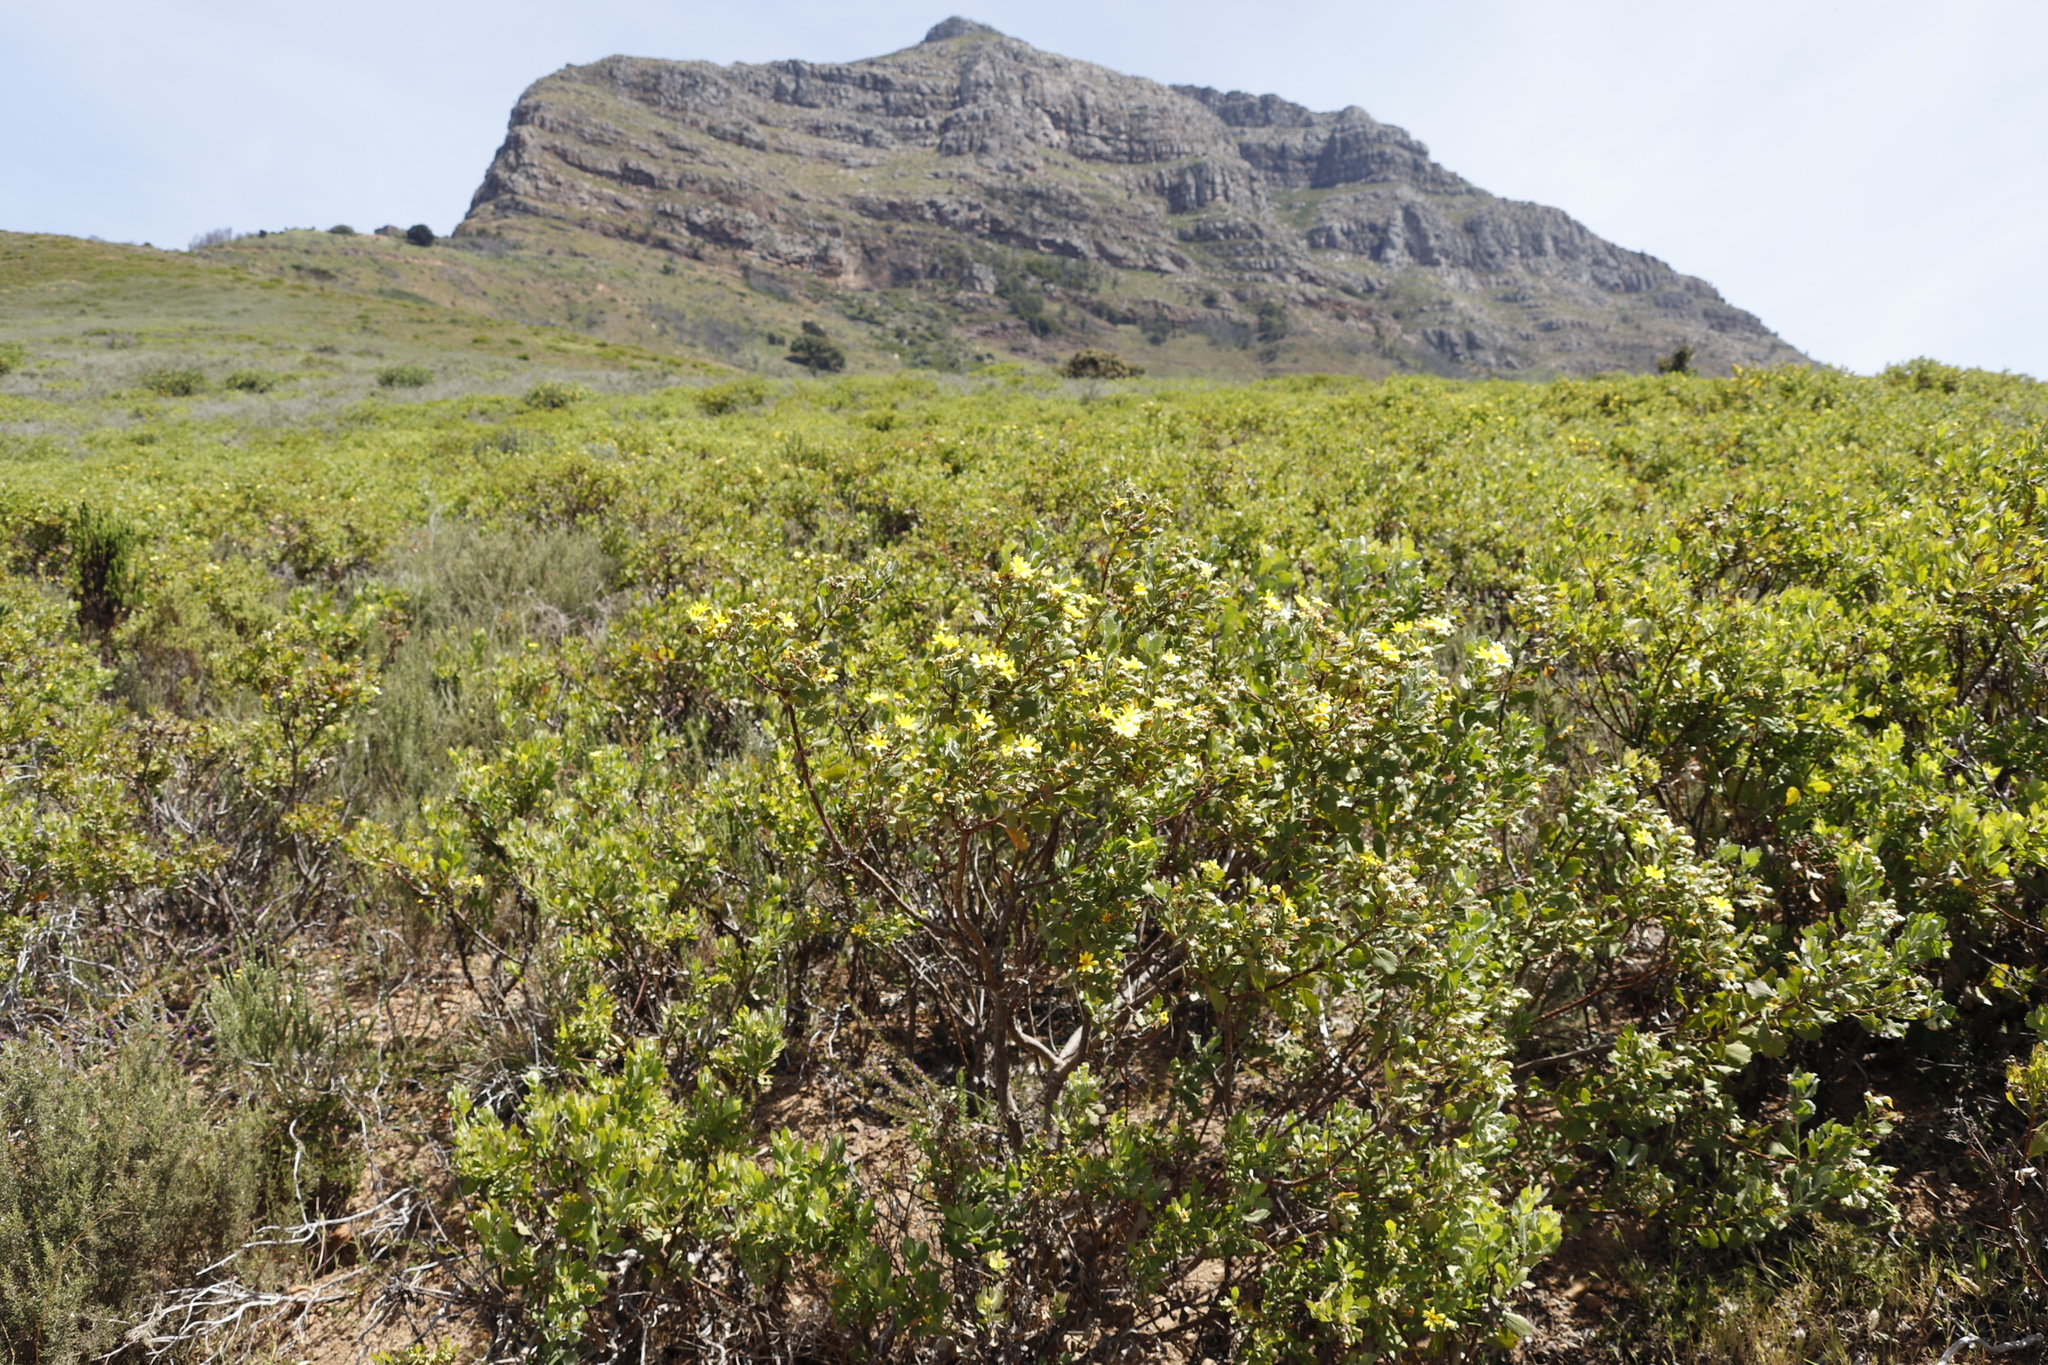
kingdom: Plantae
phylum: Tracheophyta
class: Magnoliopsida
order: Asterales
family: Asteraceae
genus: Osteospermum
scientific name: Osteospermum moniliferum
